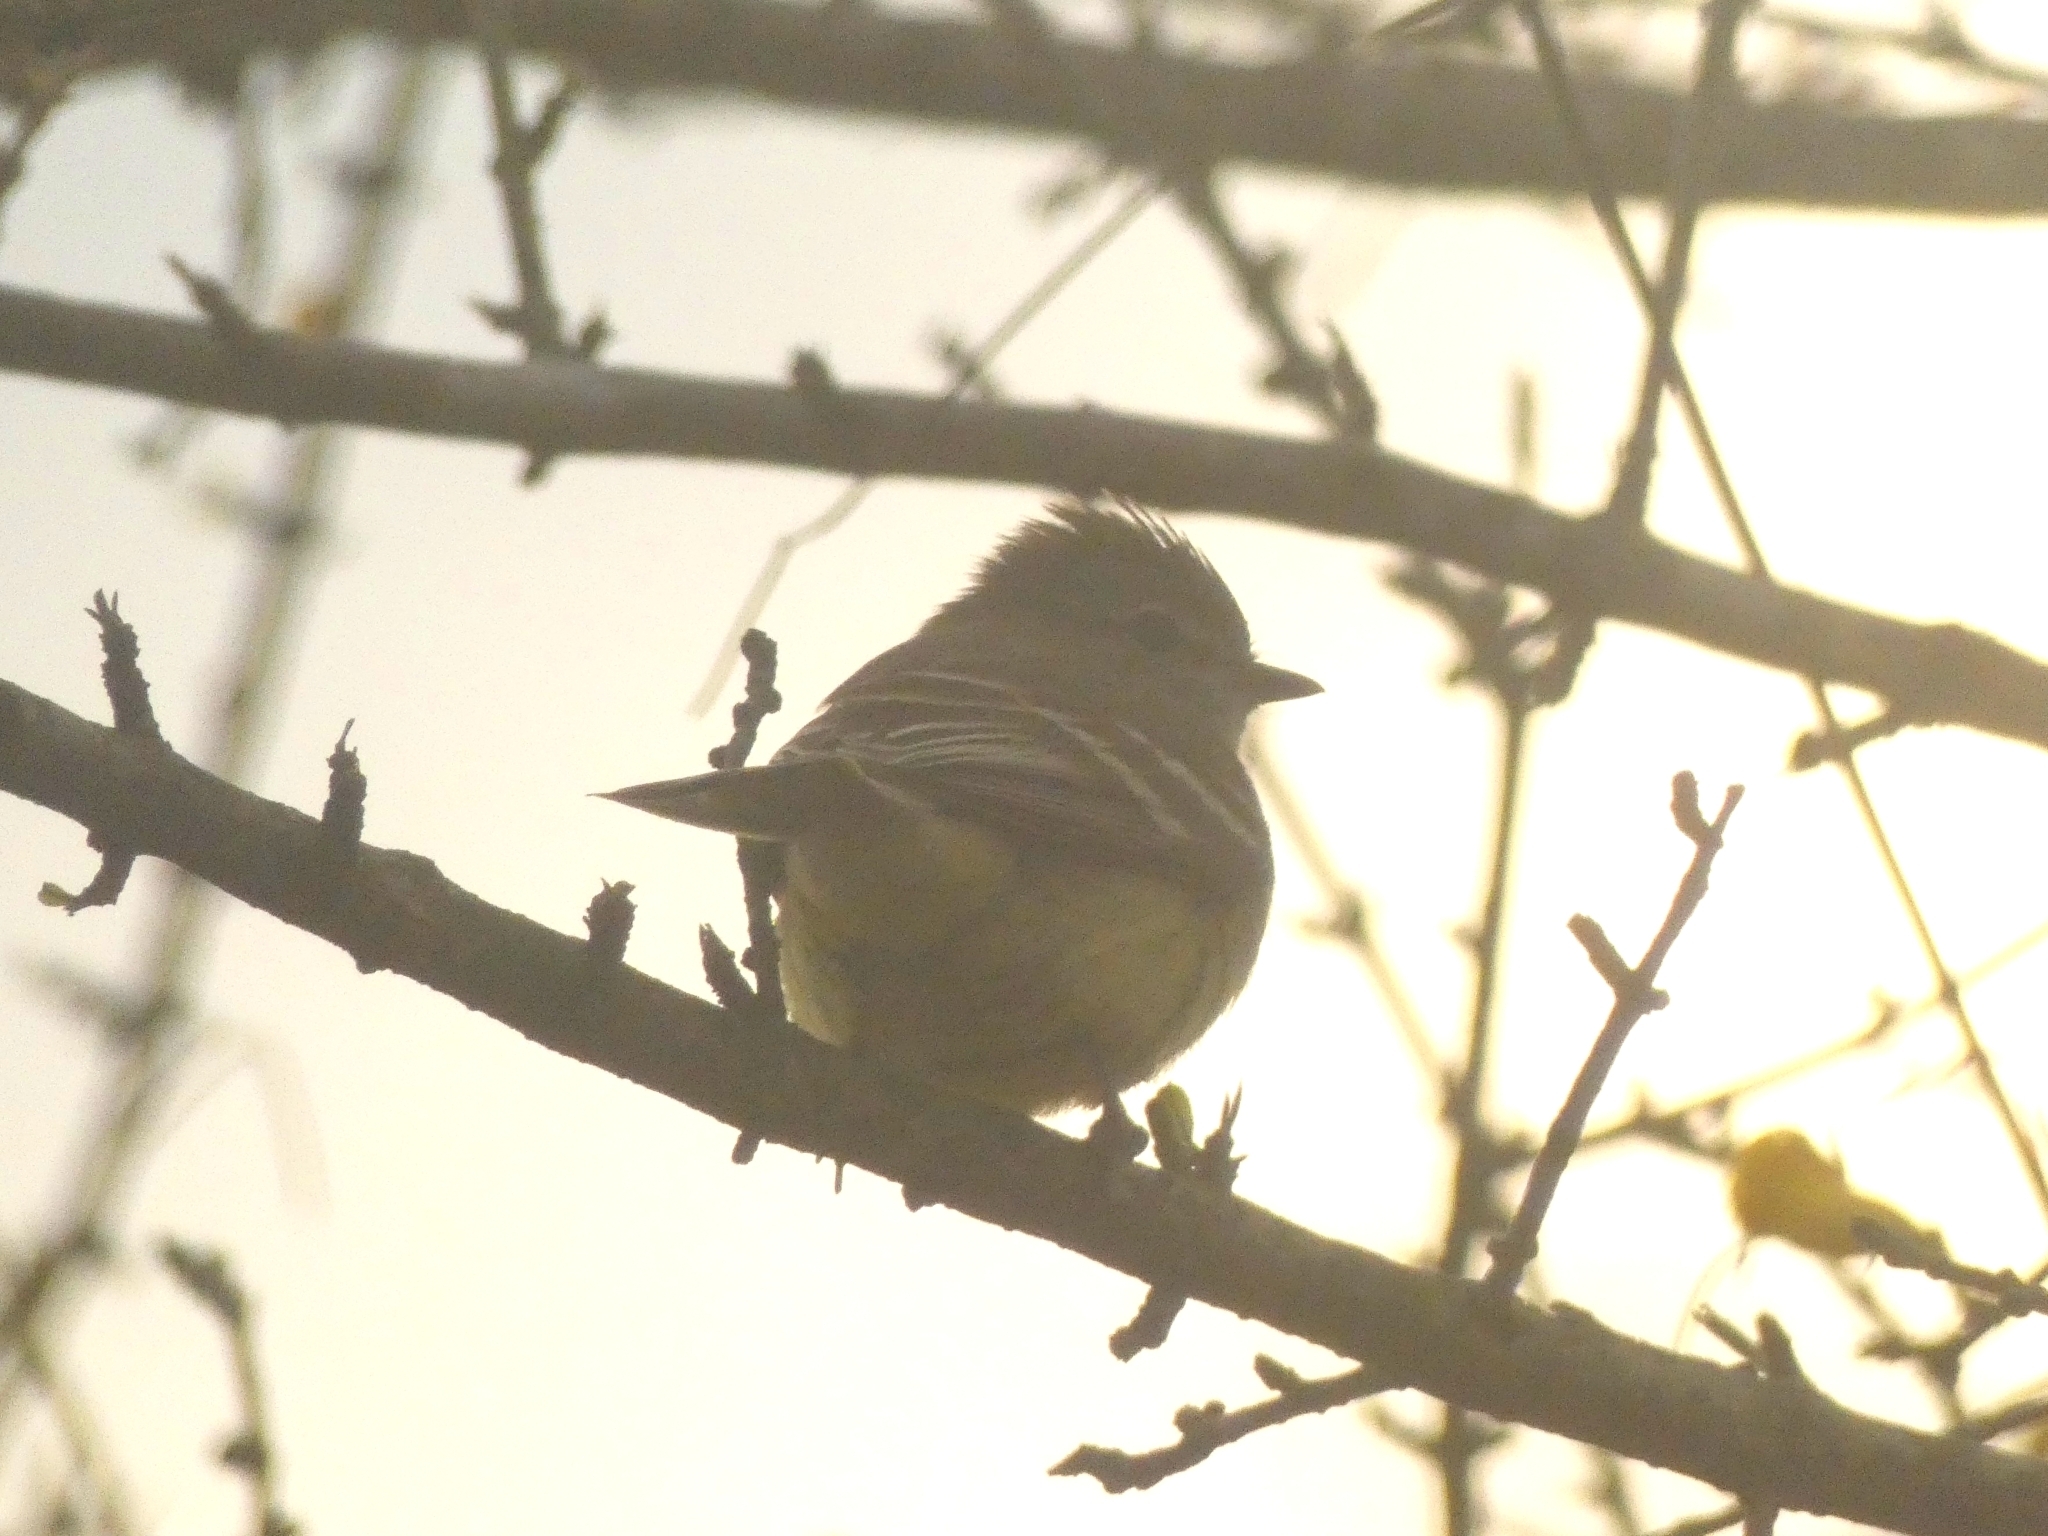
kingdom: Animalia
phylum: Chordata
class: Aves
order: Passeriformes
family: Tyrannidae
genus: Camptostoma
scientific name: Camptostoma obsoletum
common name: Southern beardless-tyrannulet
